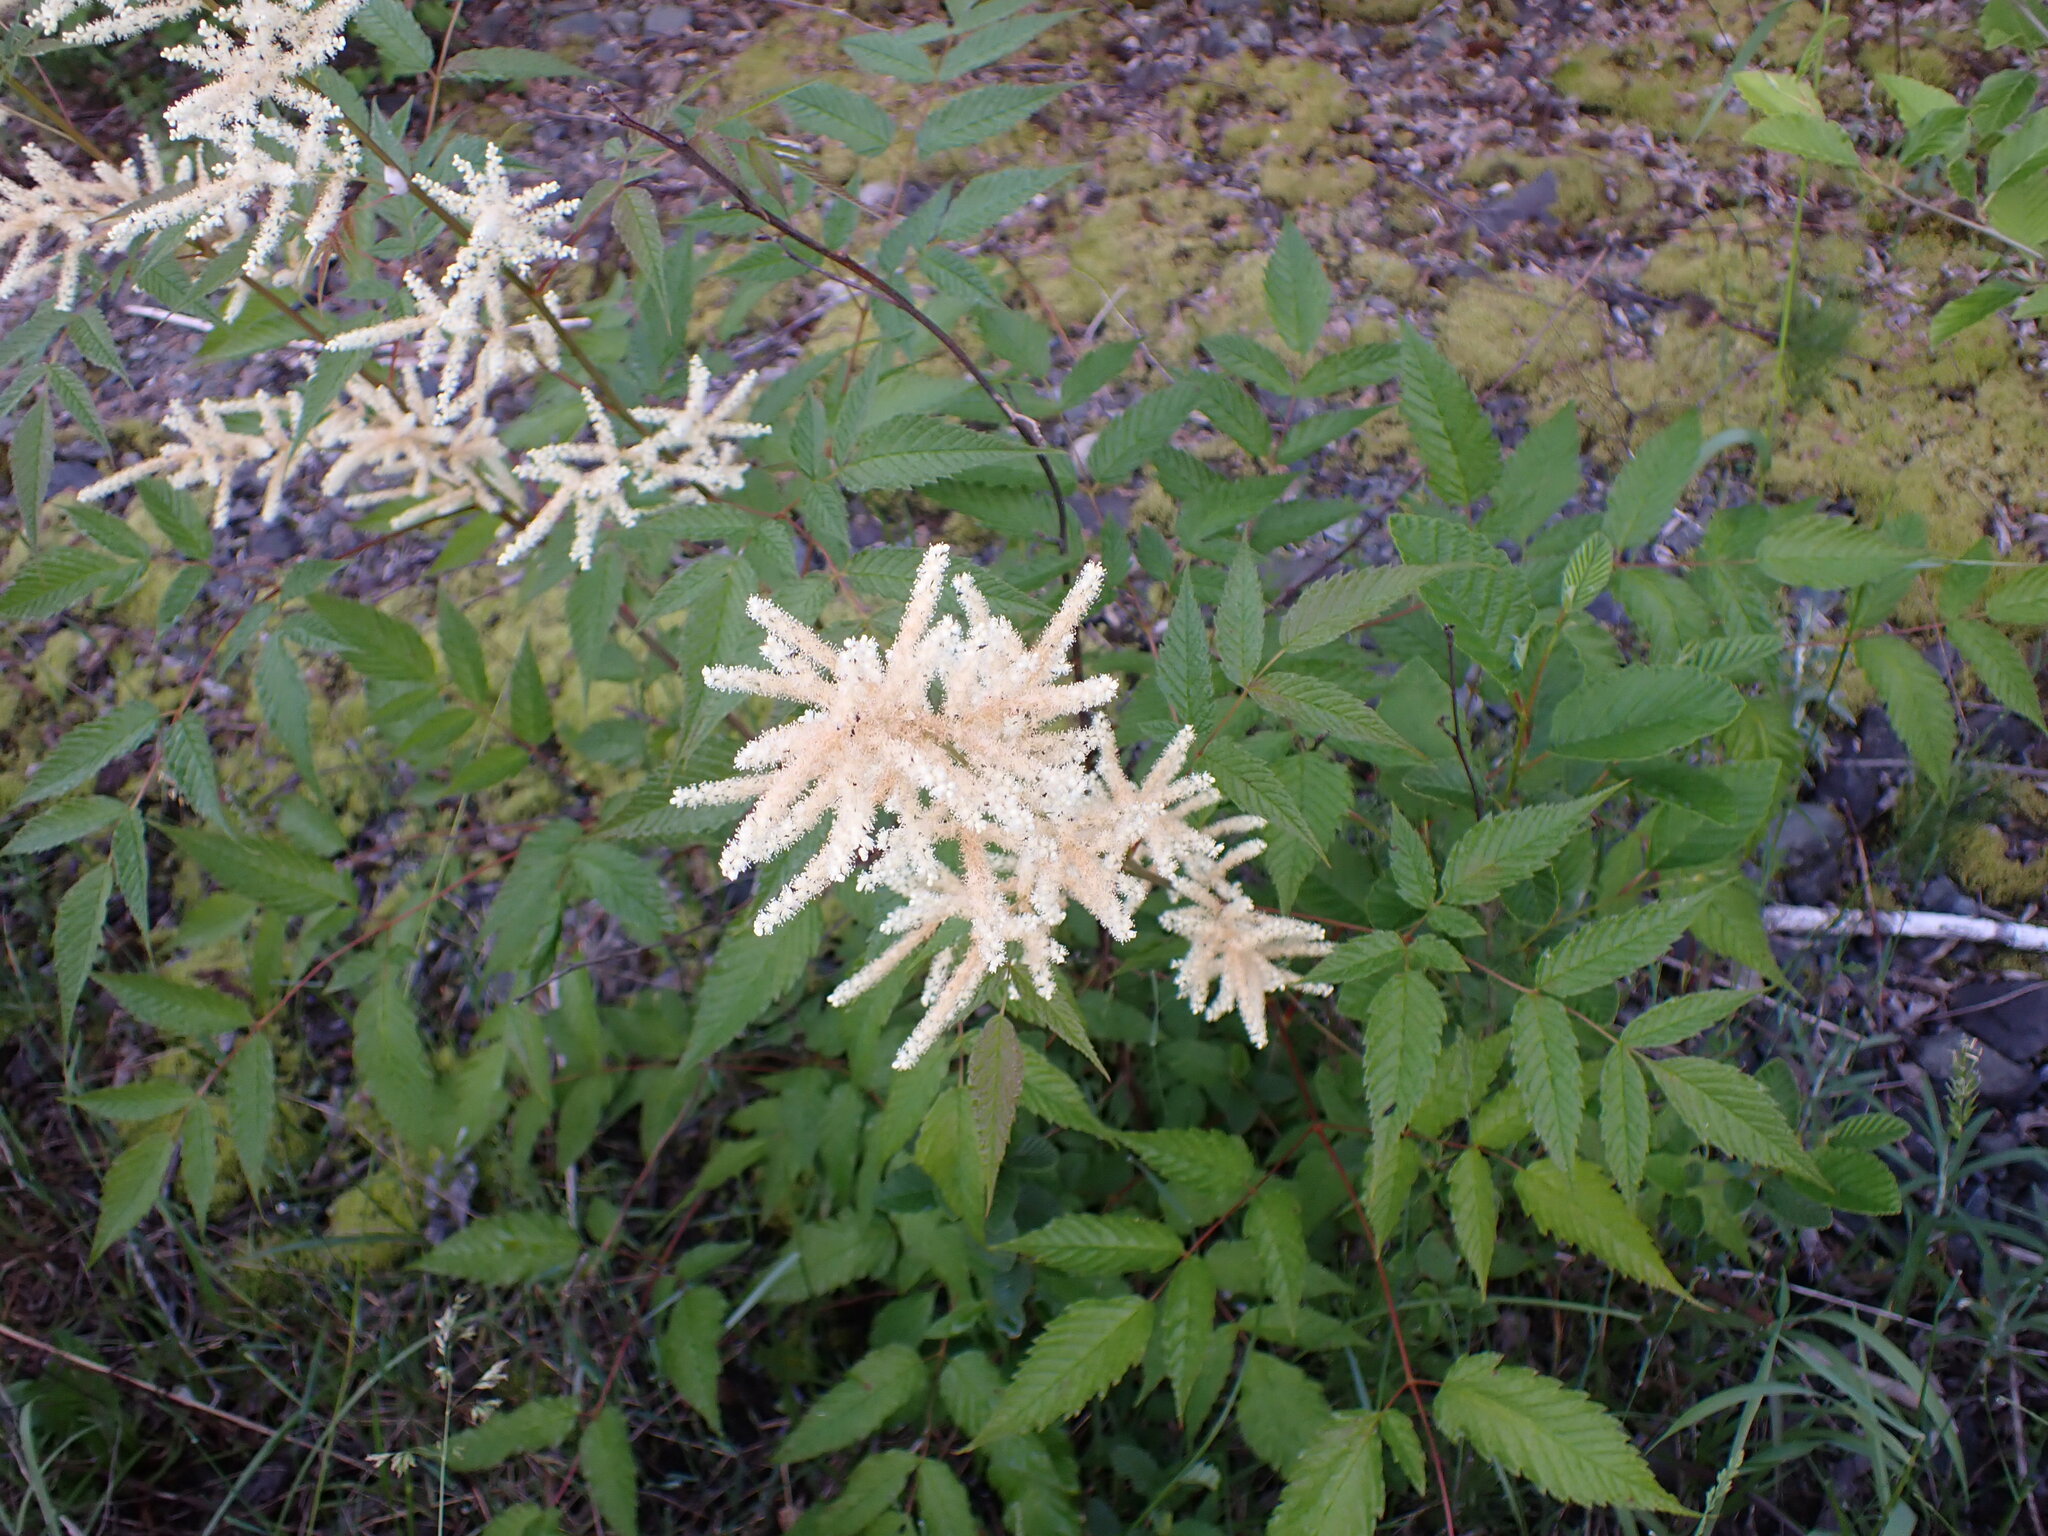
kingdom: Plantae
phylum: Tracheophyta
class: Magnoliopsida
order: Rosales
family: Rosaceae
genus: Aruncus
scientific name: Aruncus dioicus
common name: Buck's-beard
